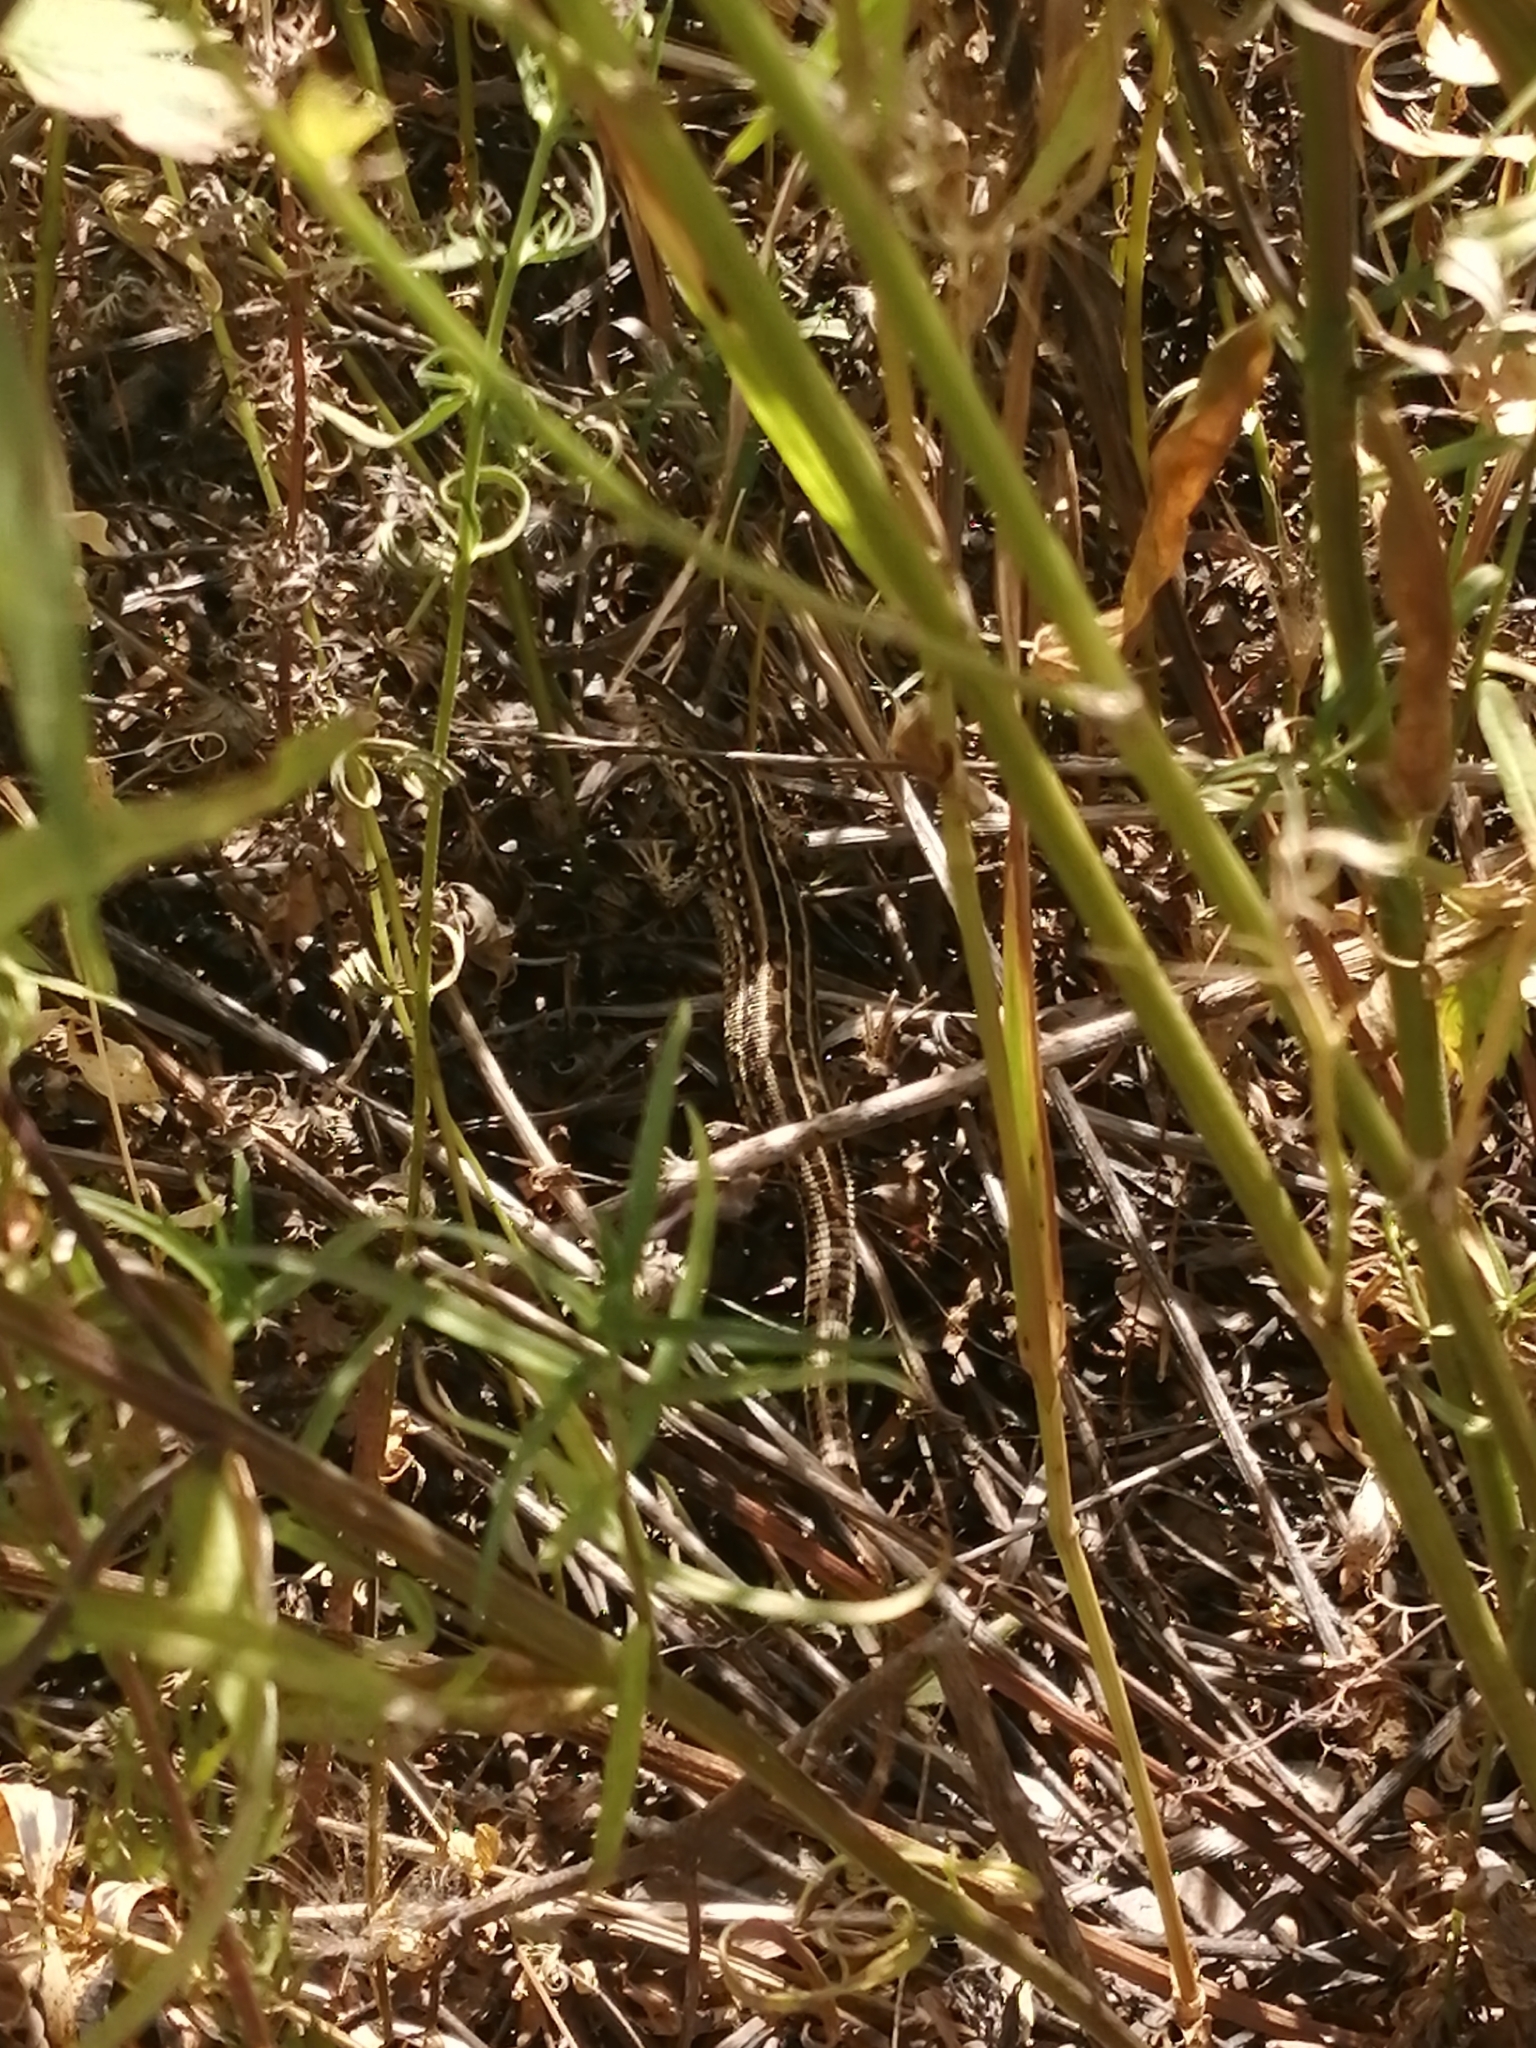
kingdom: Animalia
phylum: Chordata
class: Squamata
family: Lacertidae
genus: Lacerta
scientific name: Lacerta agilis
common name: Sand lizard
